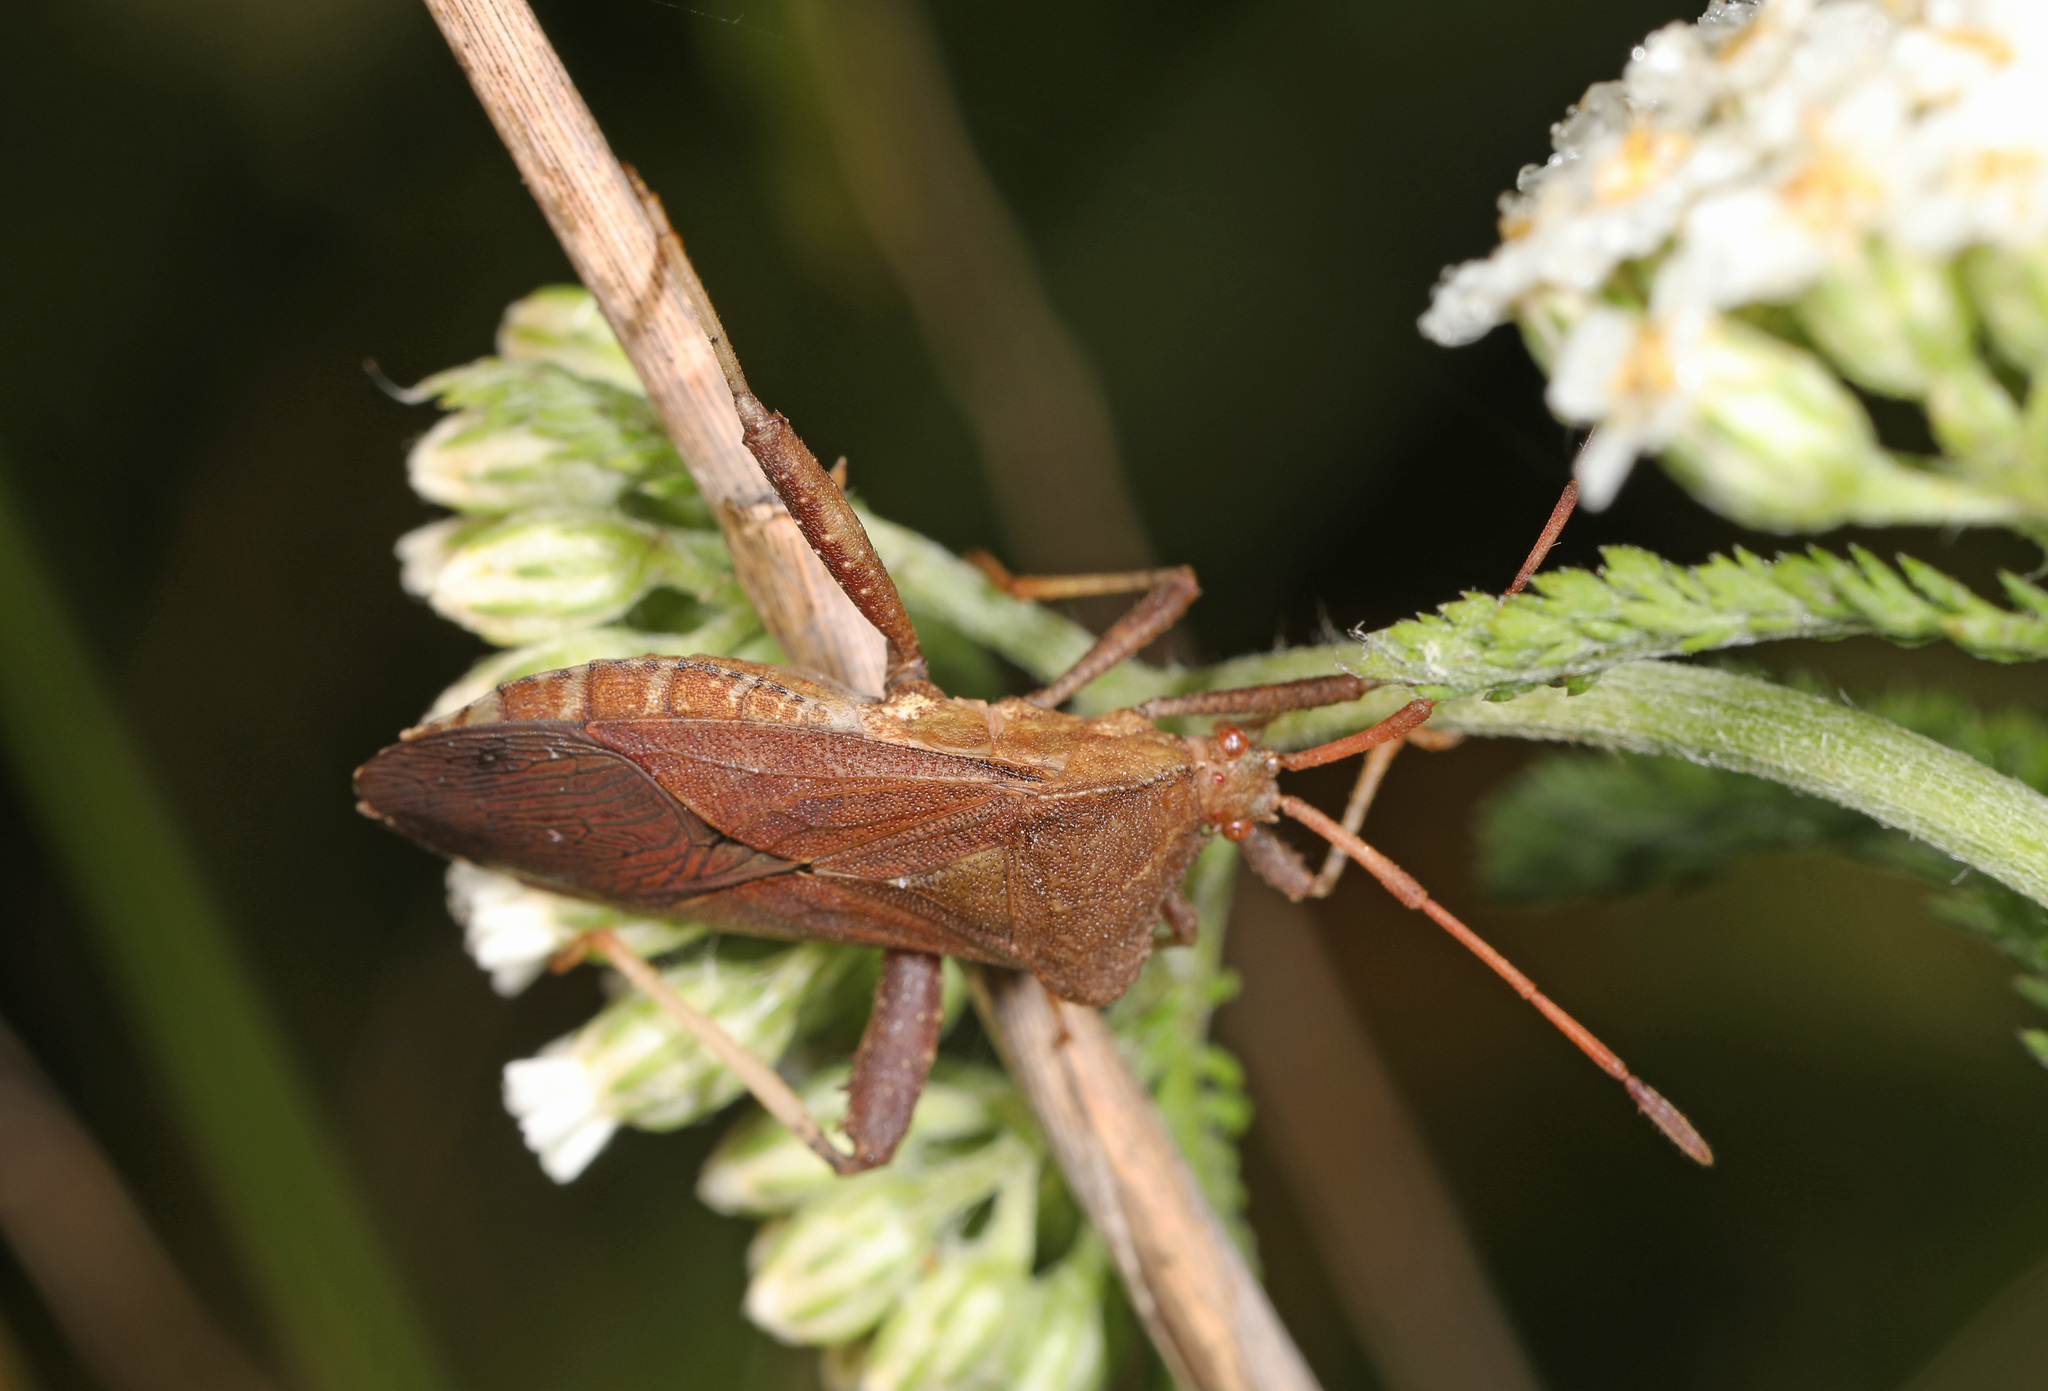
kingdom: Animalia
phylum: Arthropoda
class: Insecta
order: Hemiptera
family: Coreidae
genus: Euthochtha
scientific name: Euthochtha galeator
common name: Helmeted squash bug
